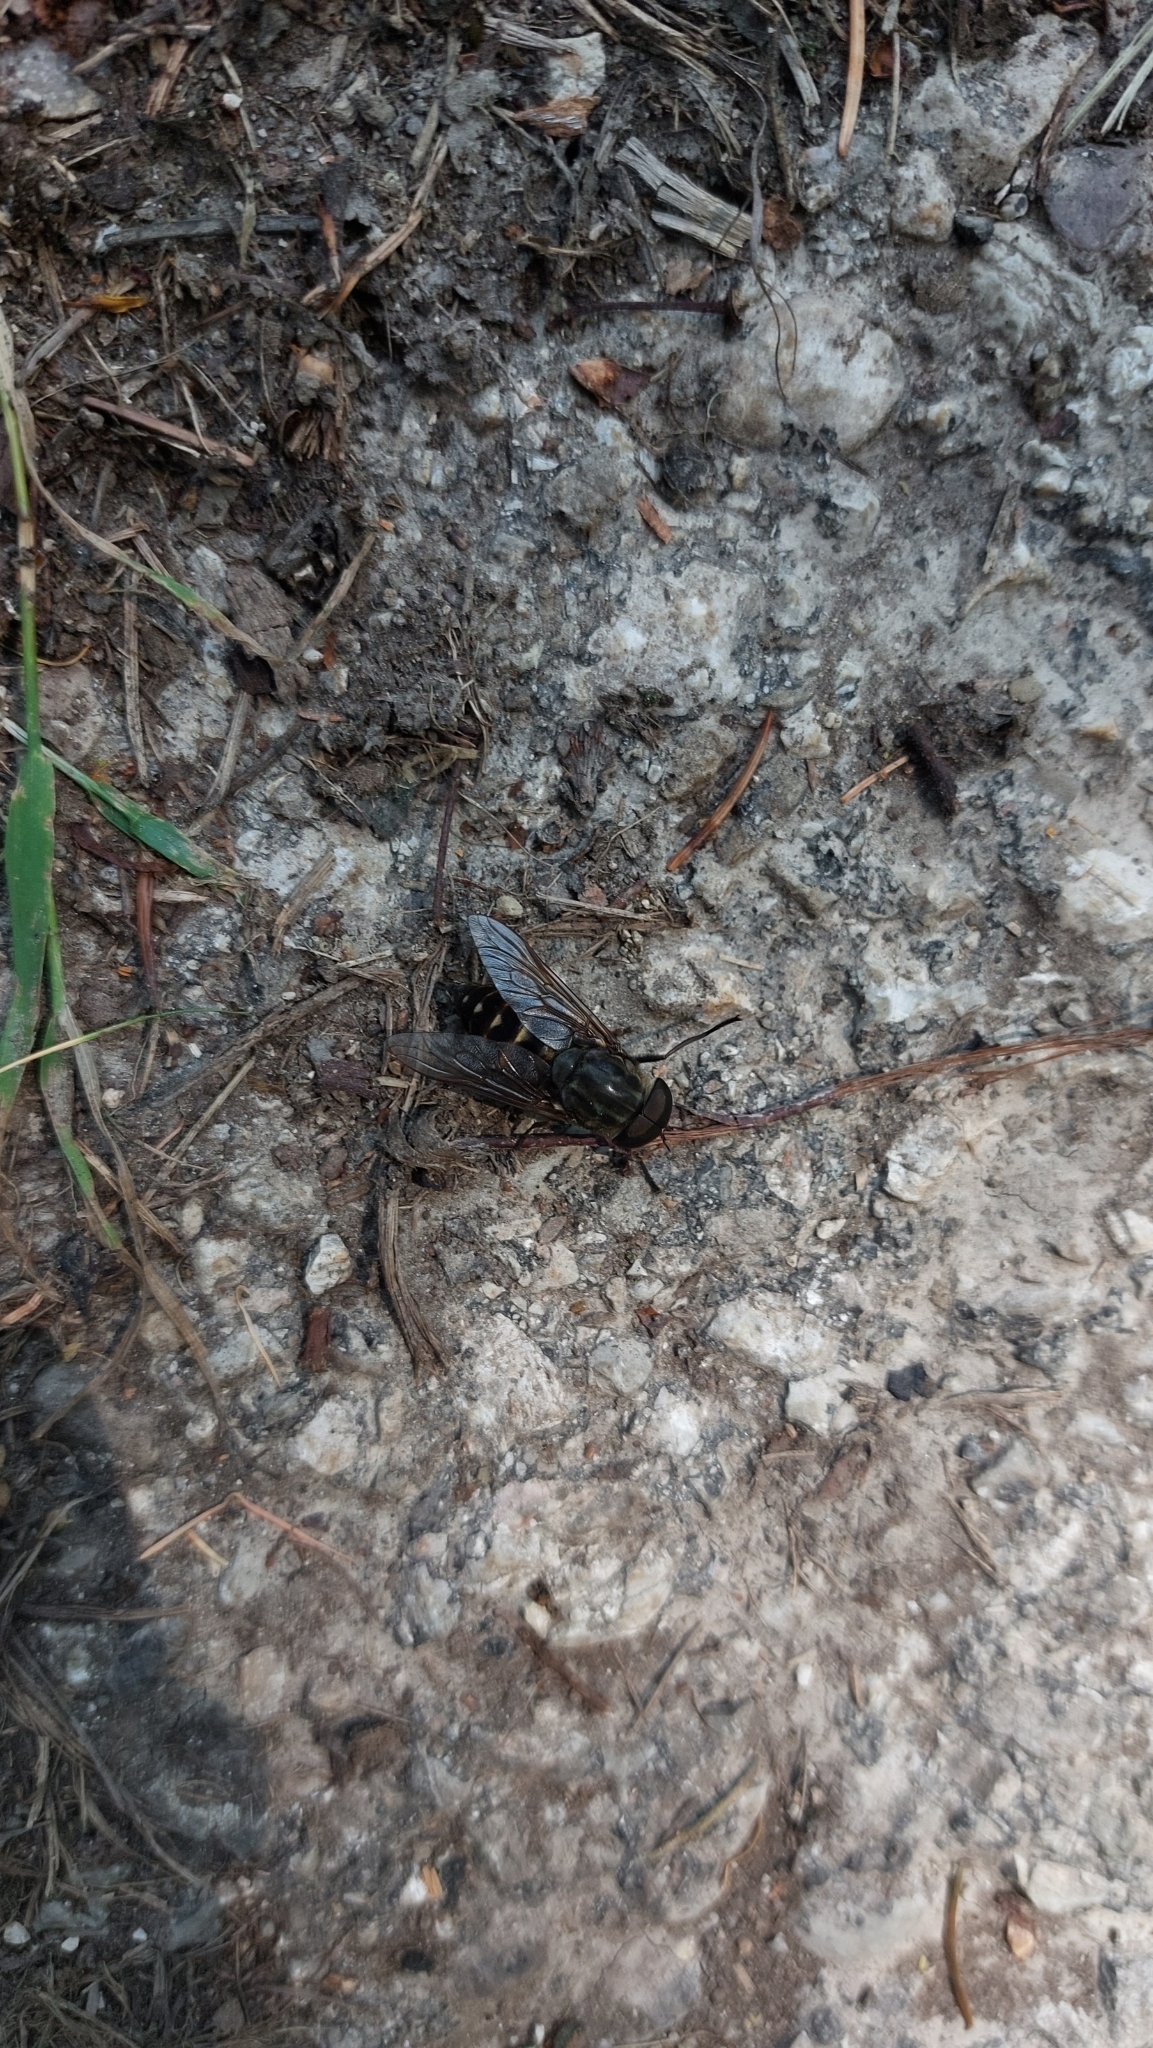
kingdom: Animalia
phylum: Arthropoda
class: Insecta
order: Diptera
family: Tabanidae
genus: Tabanus
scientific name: Tabanus sudeticus
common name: Dark giant horsefly
